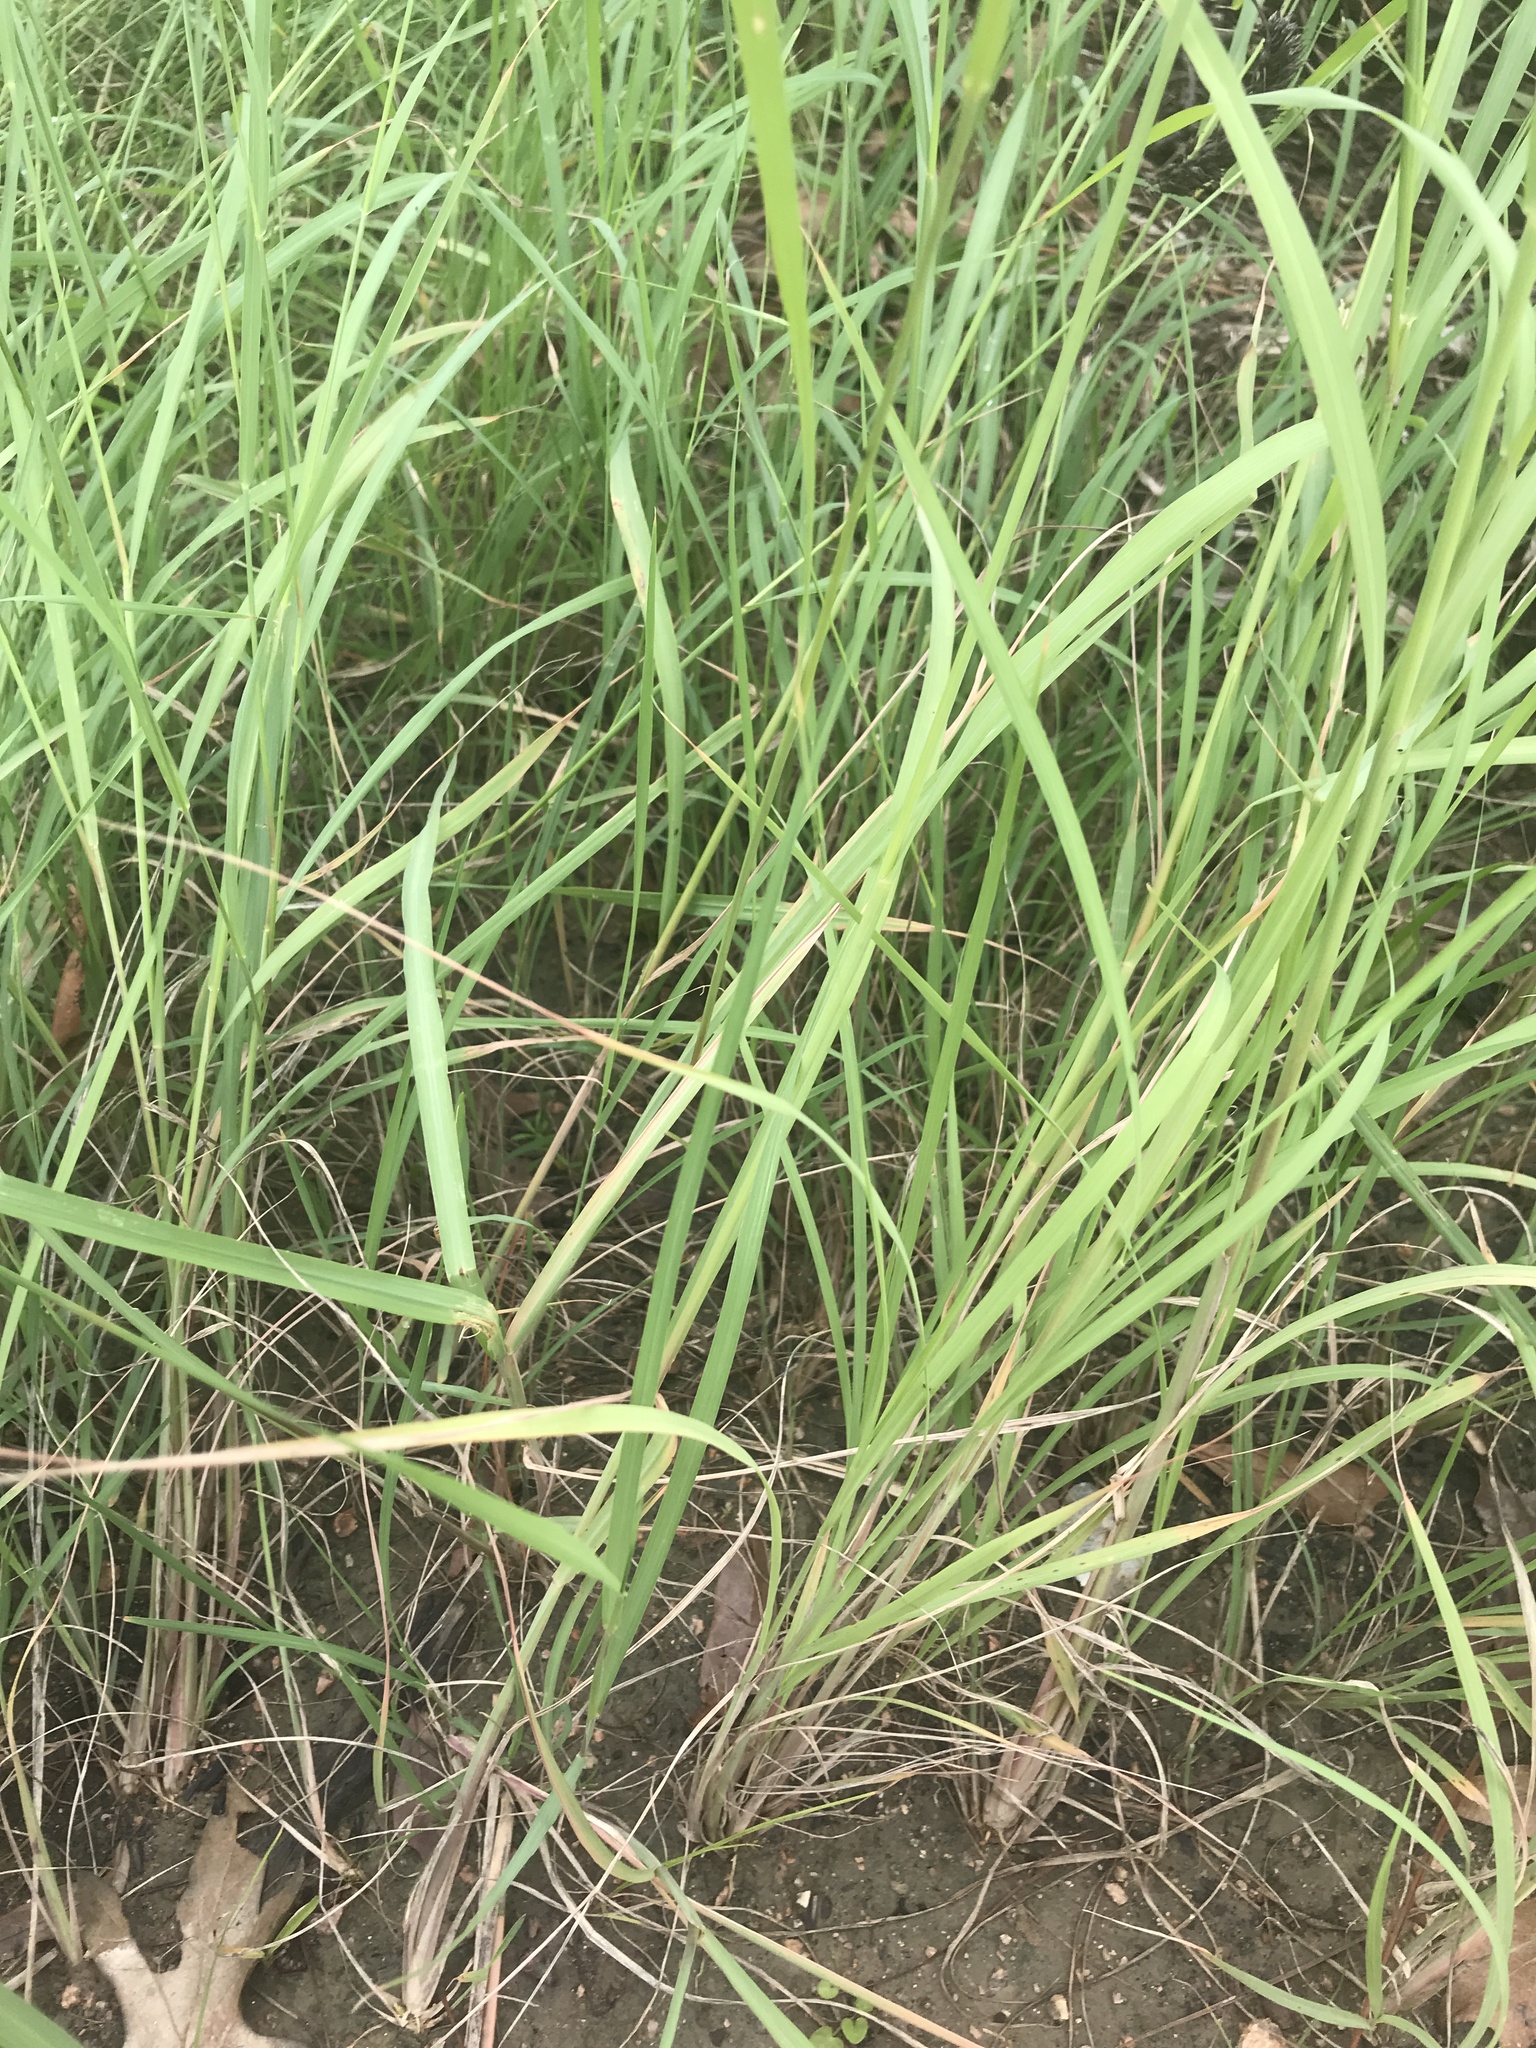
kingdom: Plantae
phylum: Tracheophyta
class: Liliopsida
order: Poales
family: Poaceae
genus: Disakisperma
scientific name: Disakisperma dubium
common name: Green sprangletop
